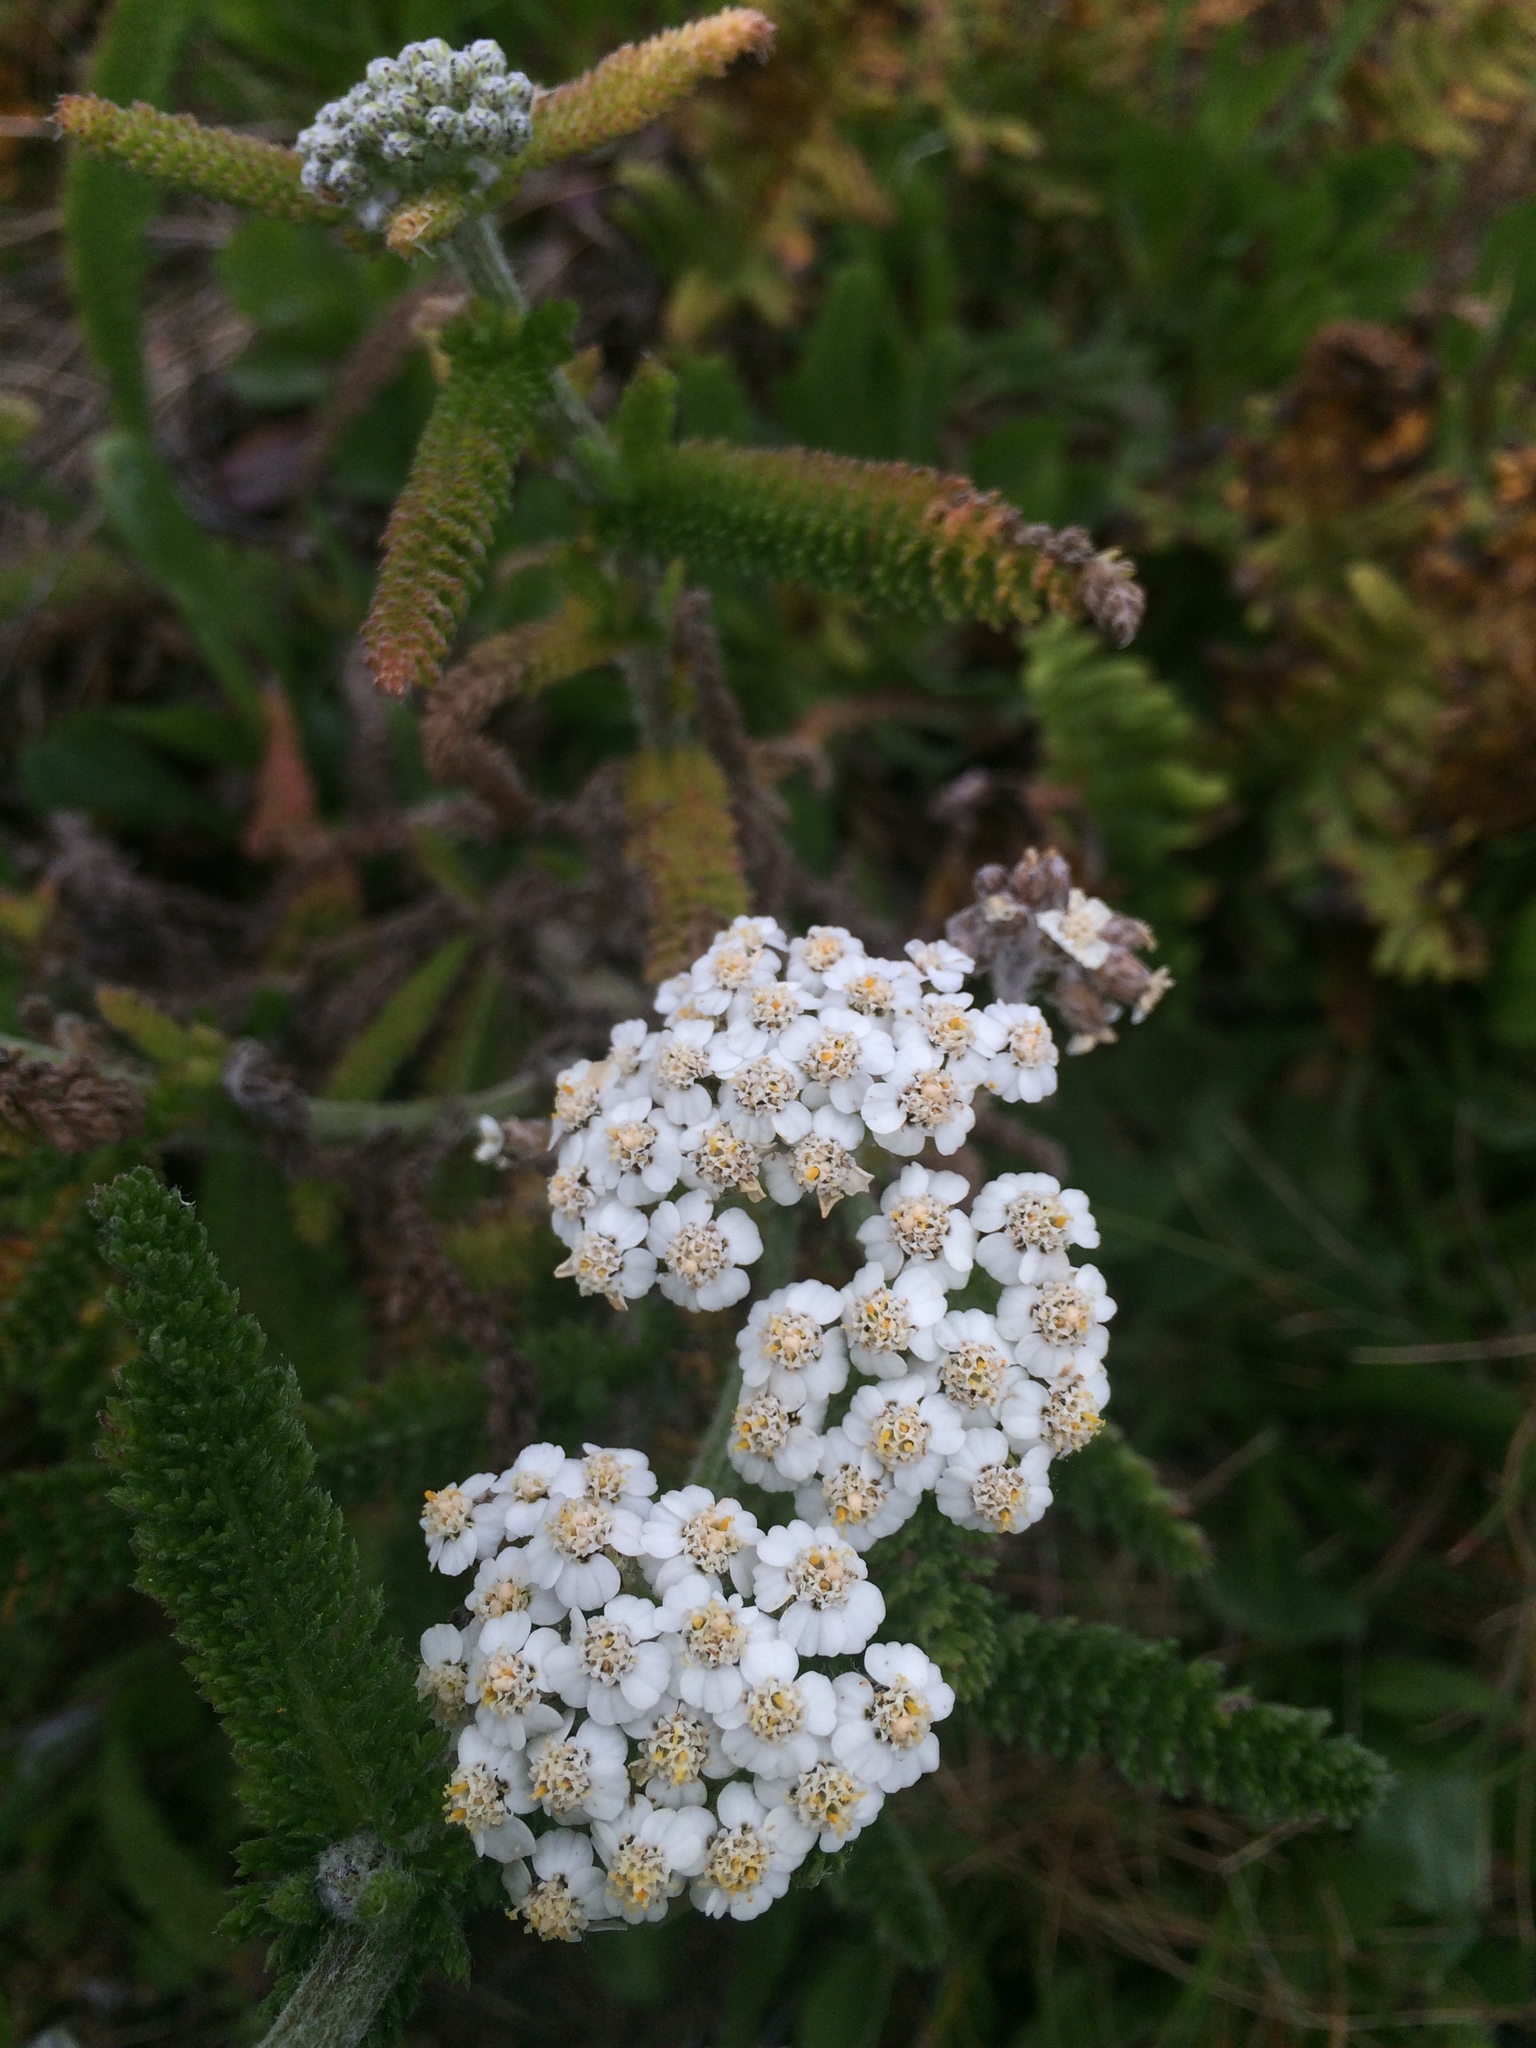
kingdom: Plantae
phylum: Tracheophyta
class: Magnoliopsida
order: Asterales
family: Asteraceae
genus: Achillea
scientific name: Achillea millefolium
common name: Yarrow
